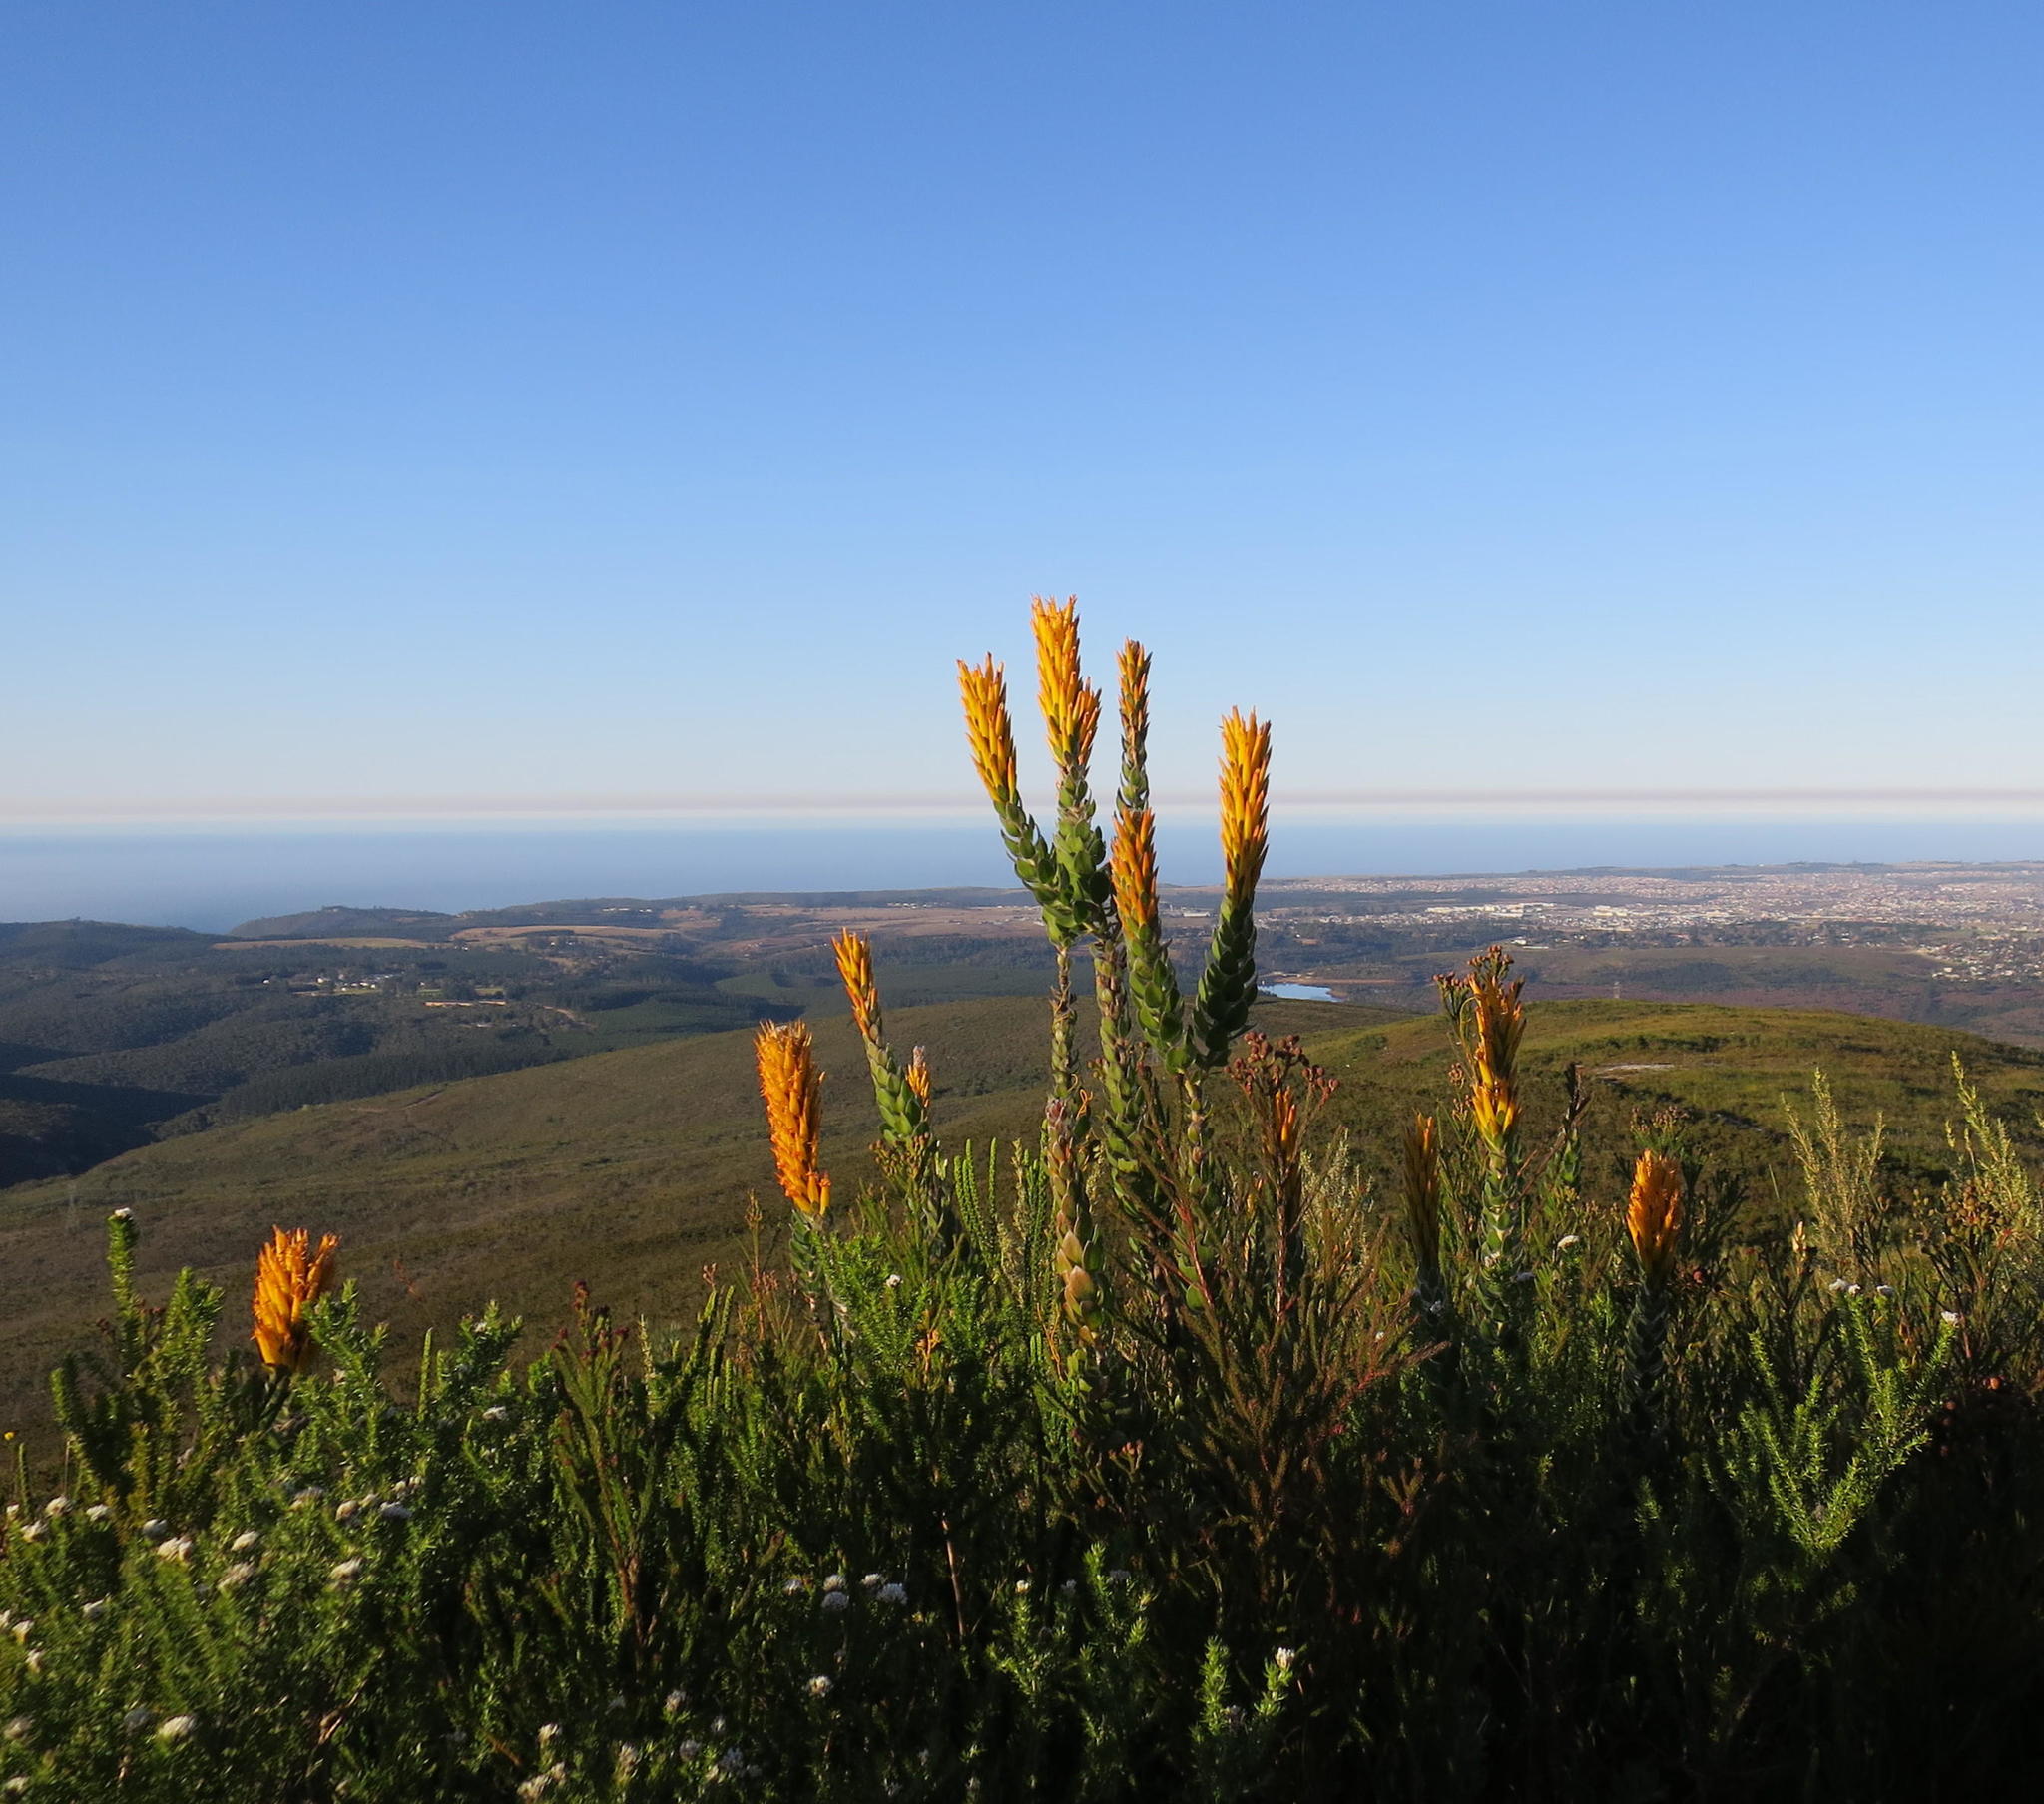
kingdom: Plantae
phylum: Tracheophyta
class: Magnoliopsida
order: Proteales
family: Proteaceae
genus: Mimetes
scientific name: Mimetes pauciflora
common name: Three-flowered pagoda
